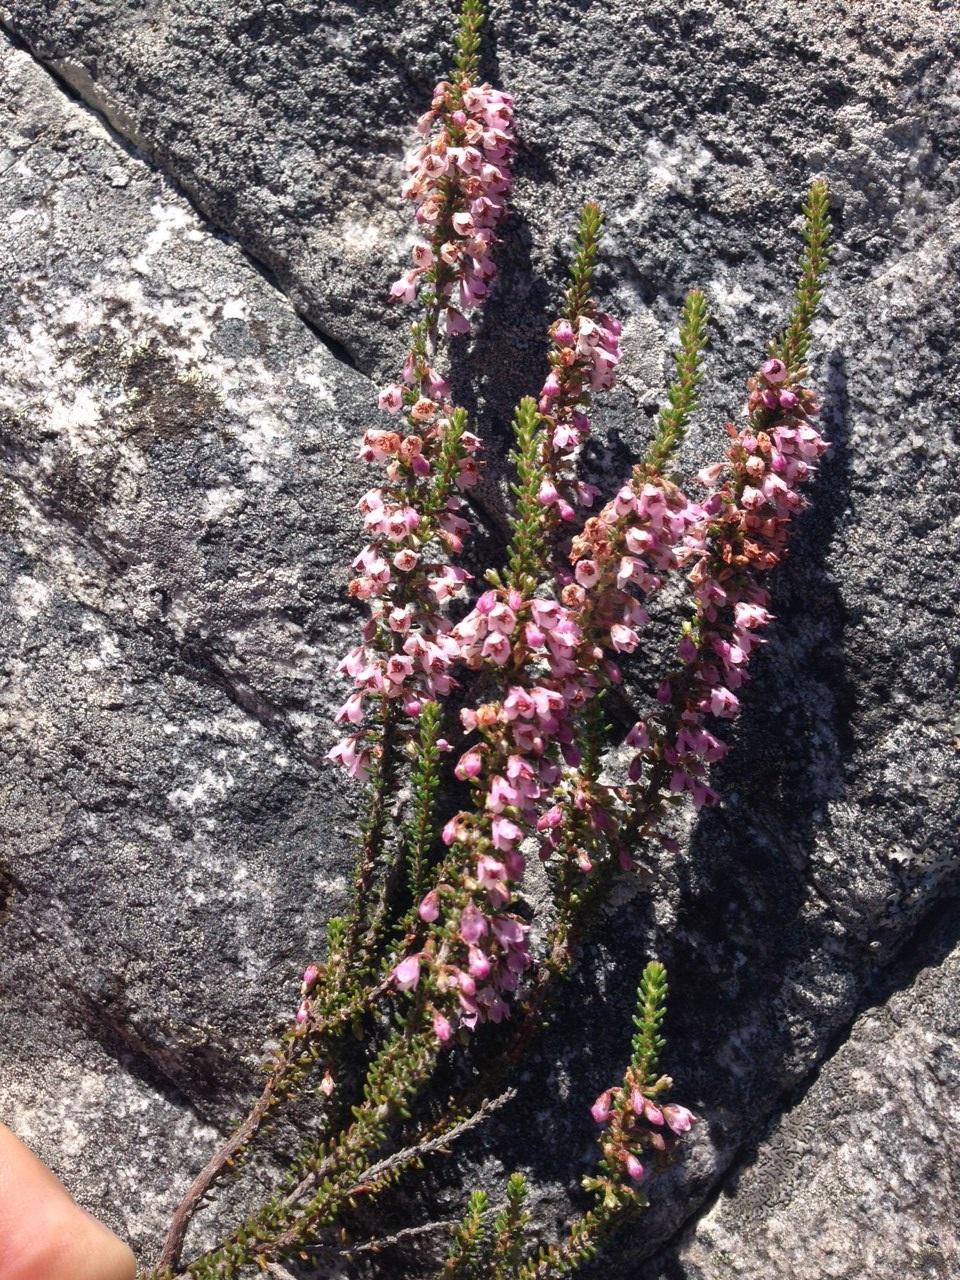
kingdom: Plantae
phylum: Tracheophyta
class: Magnoliopsida
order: Ericales
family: Ericaceae
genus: Erica
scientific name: Erica deflexa
